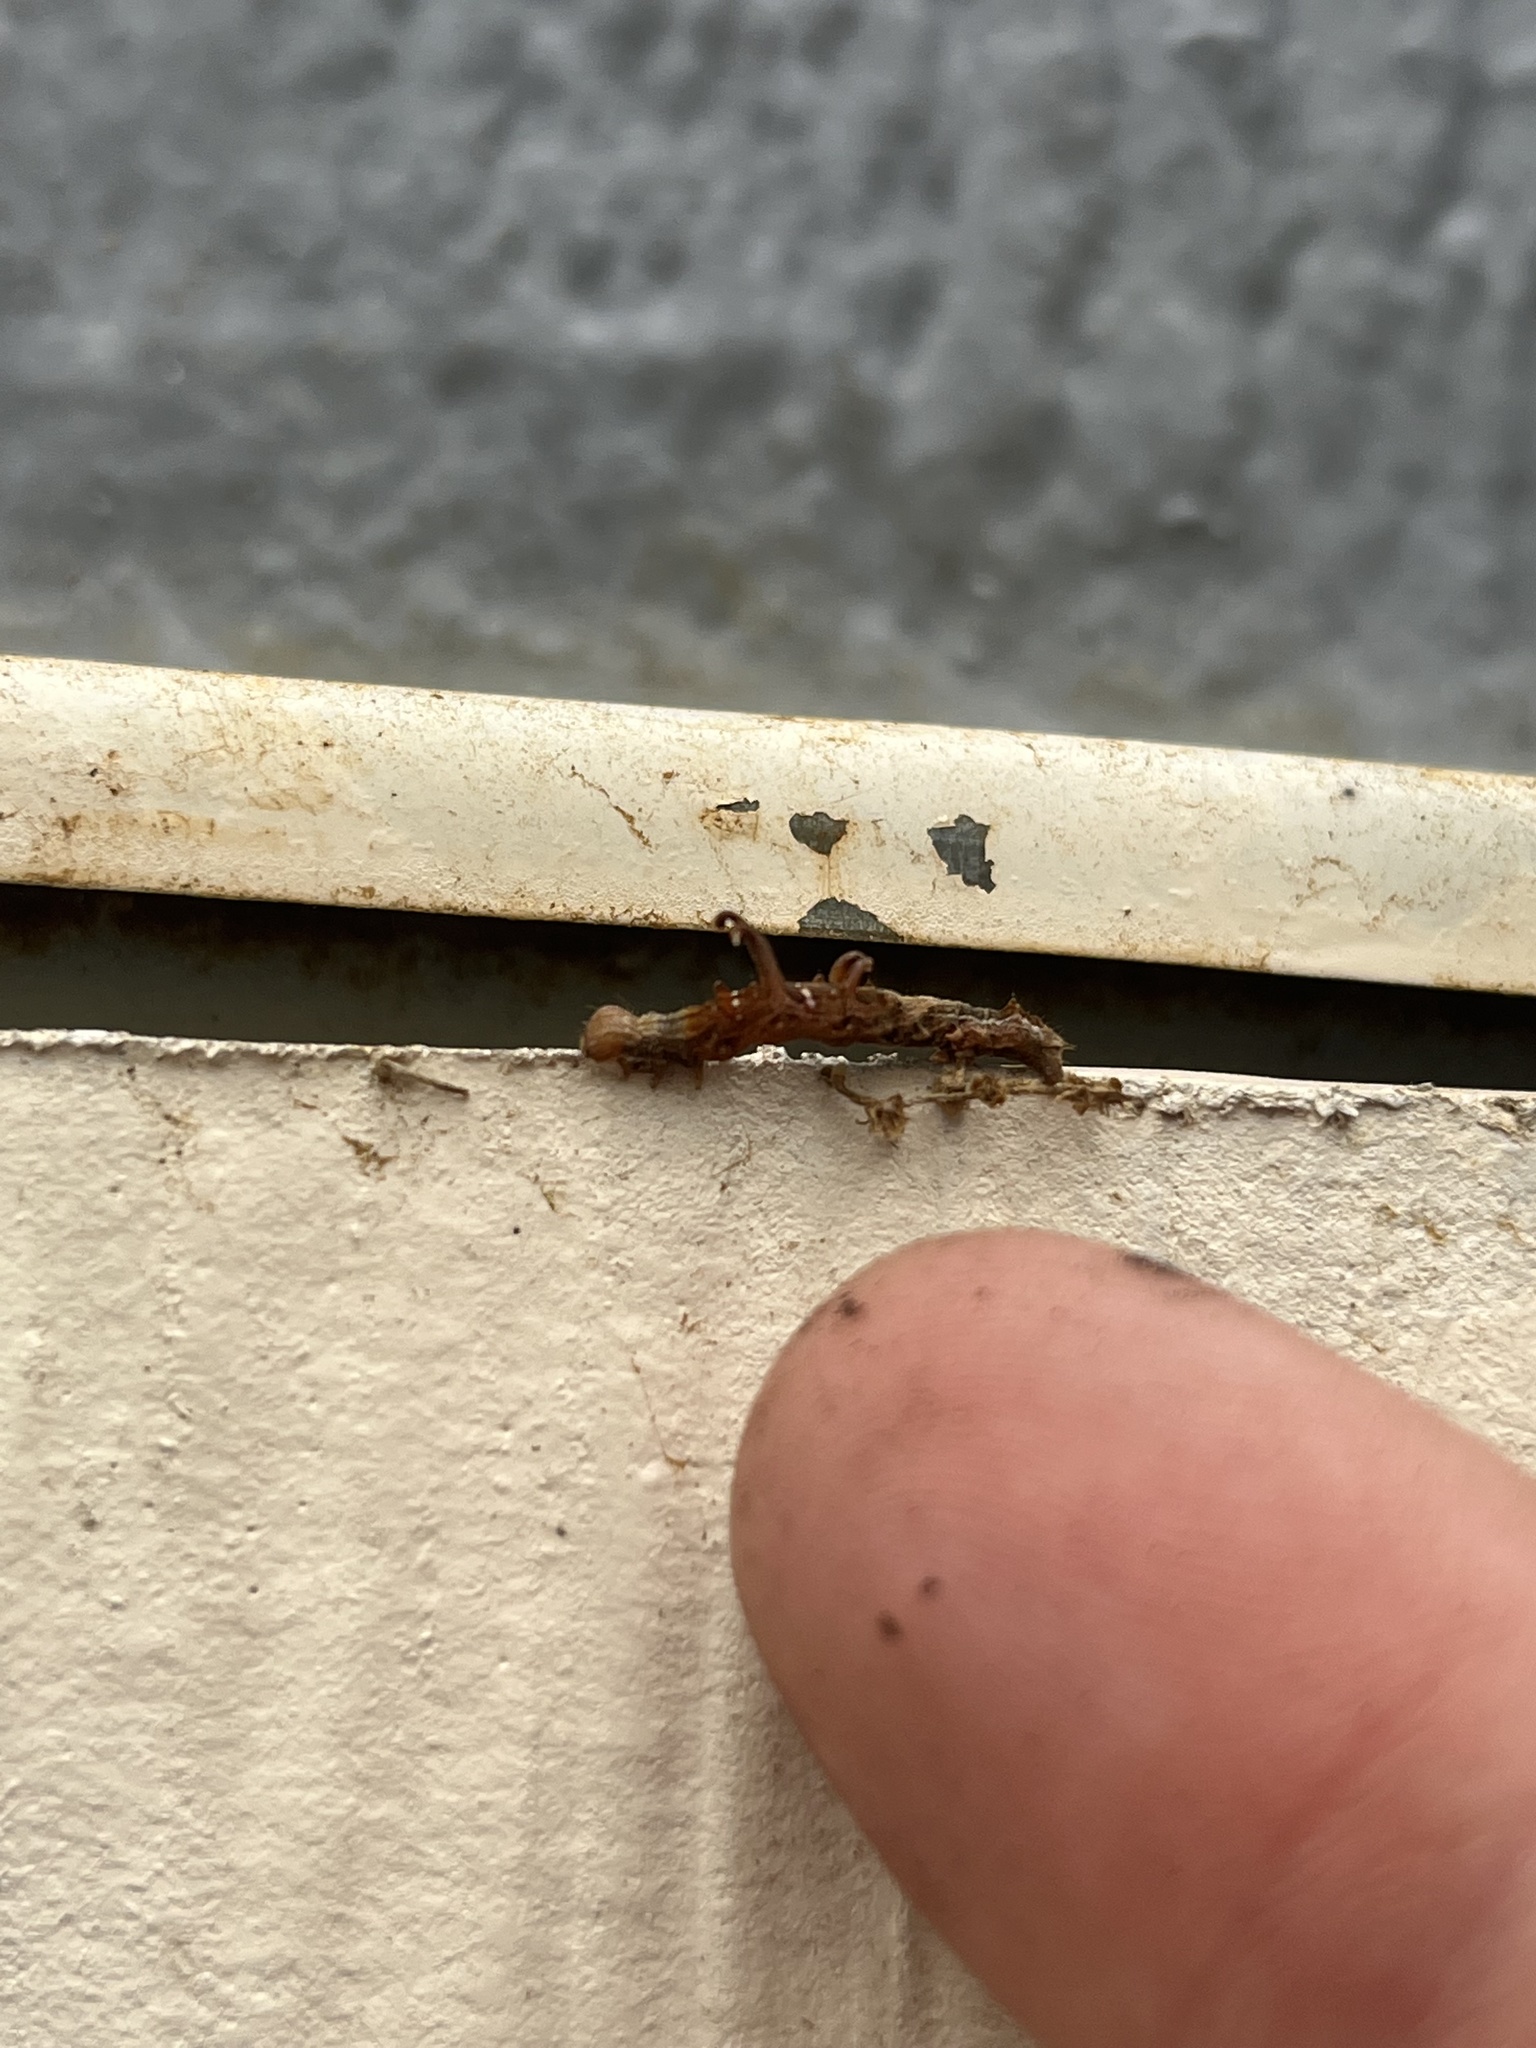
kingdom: Animalia
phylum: Arthropoda
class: Insecta
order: Lepidoptera
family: Geometridae
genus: Nematocampa
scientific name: Nematocampa resistaria
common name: Horned spanworm moth
